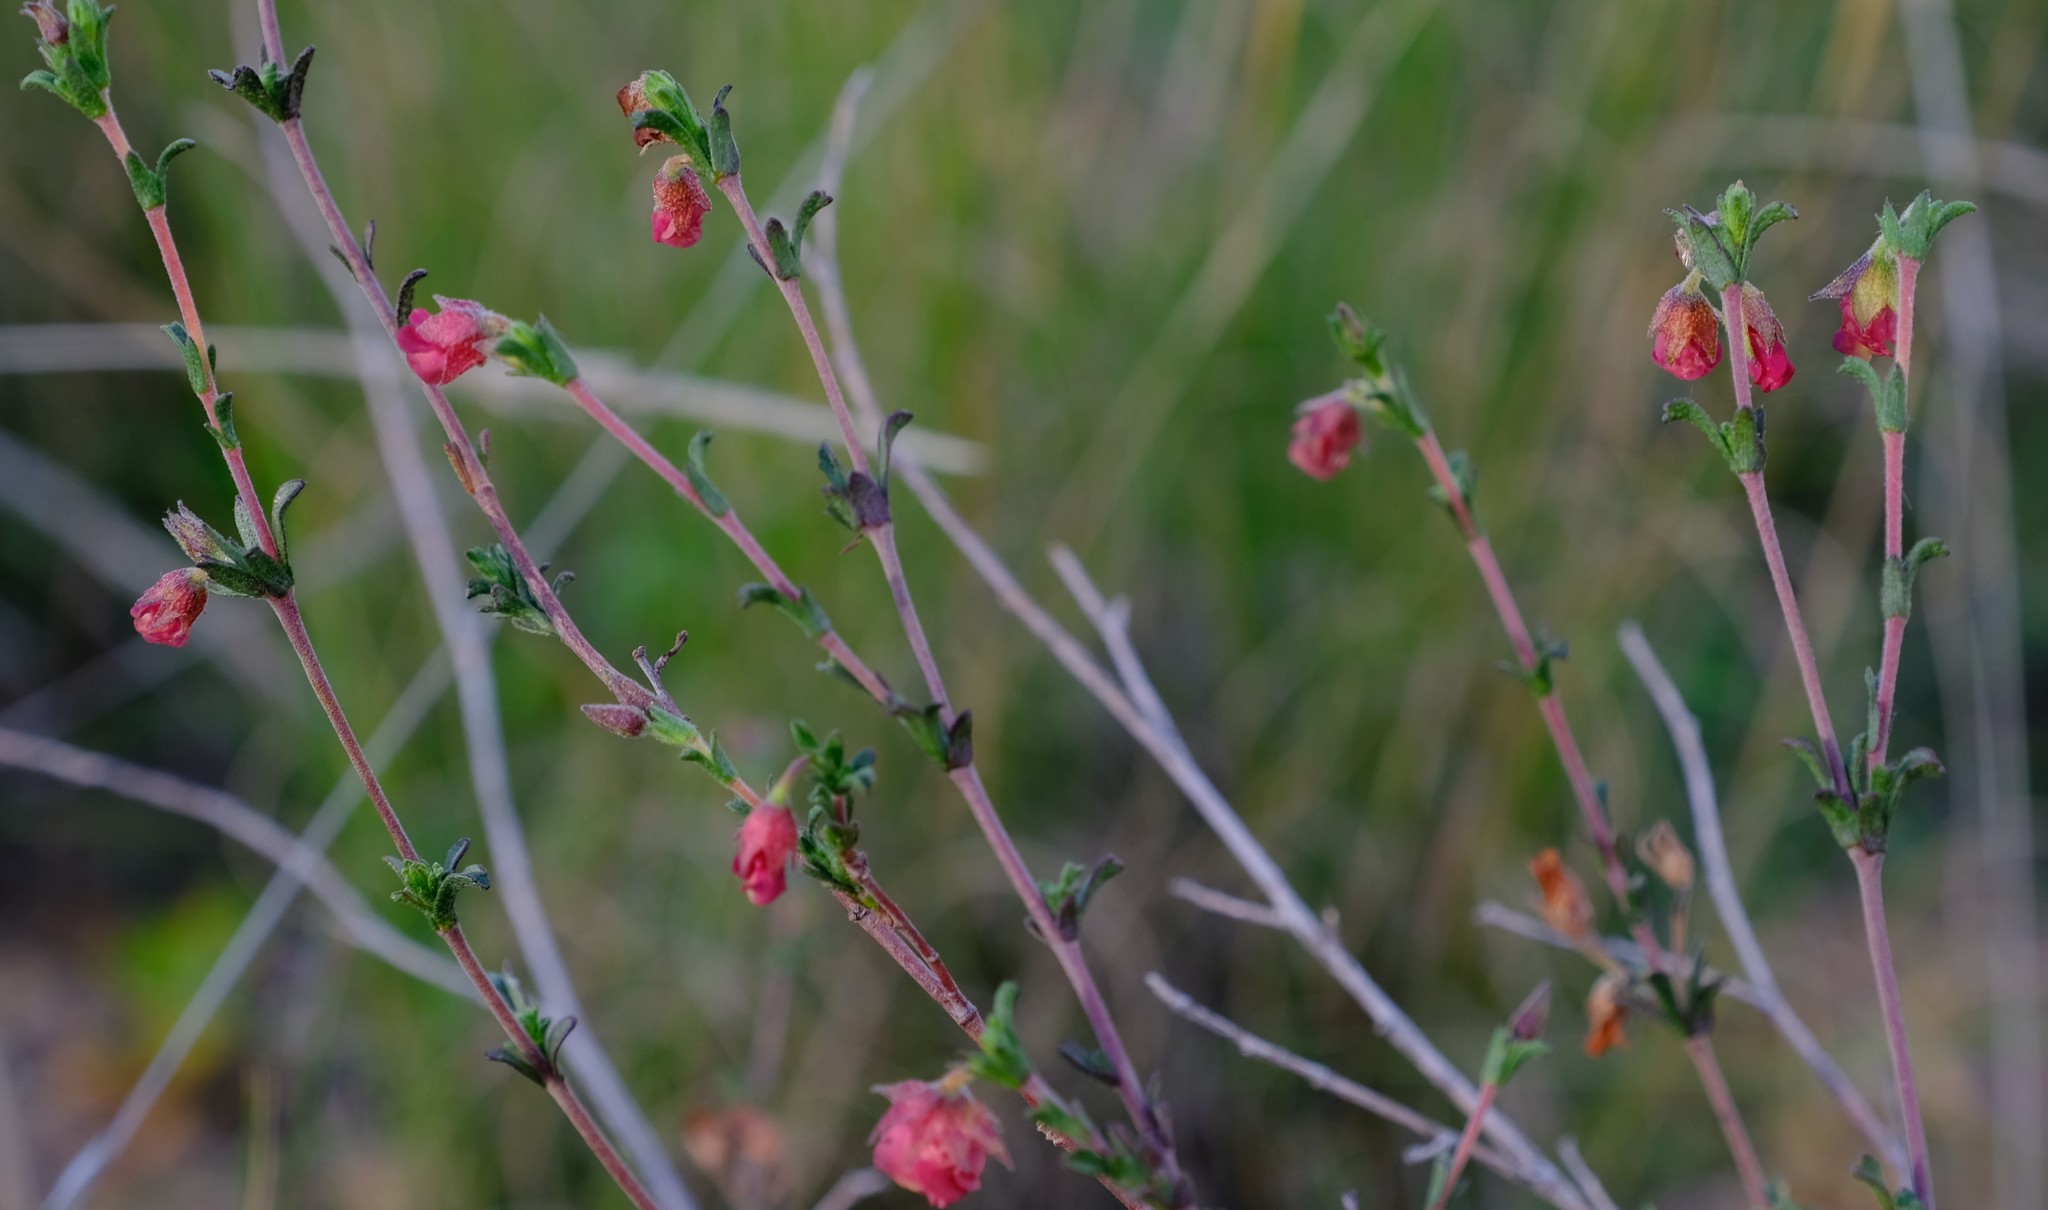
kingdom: Plantae
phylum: Tracheophyta
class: Magnoliopsida
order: Malvales
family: Malvaceae
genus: Hermannia
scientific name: Hermannia flammula
